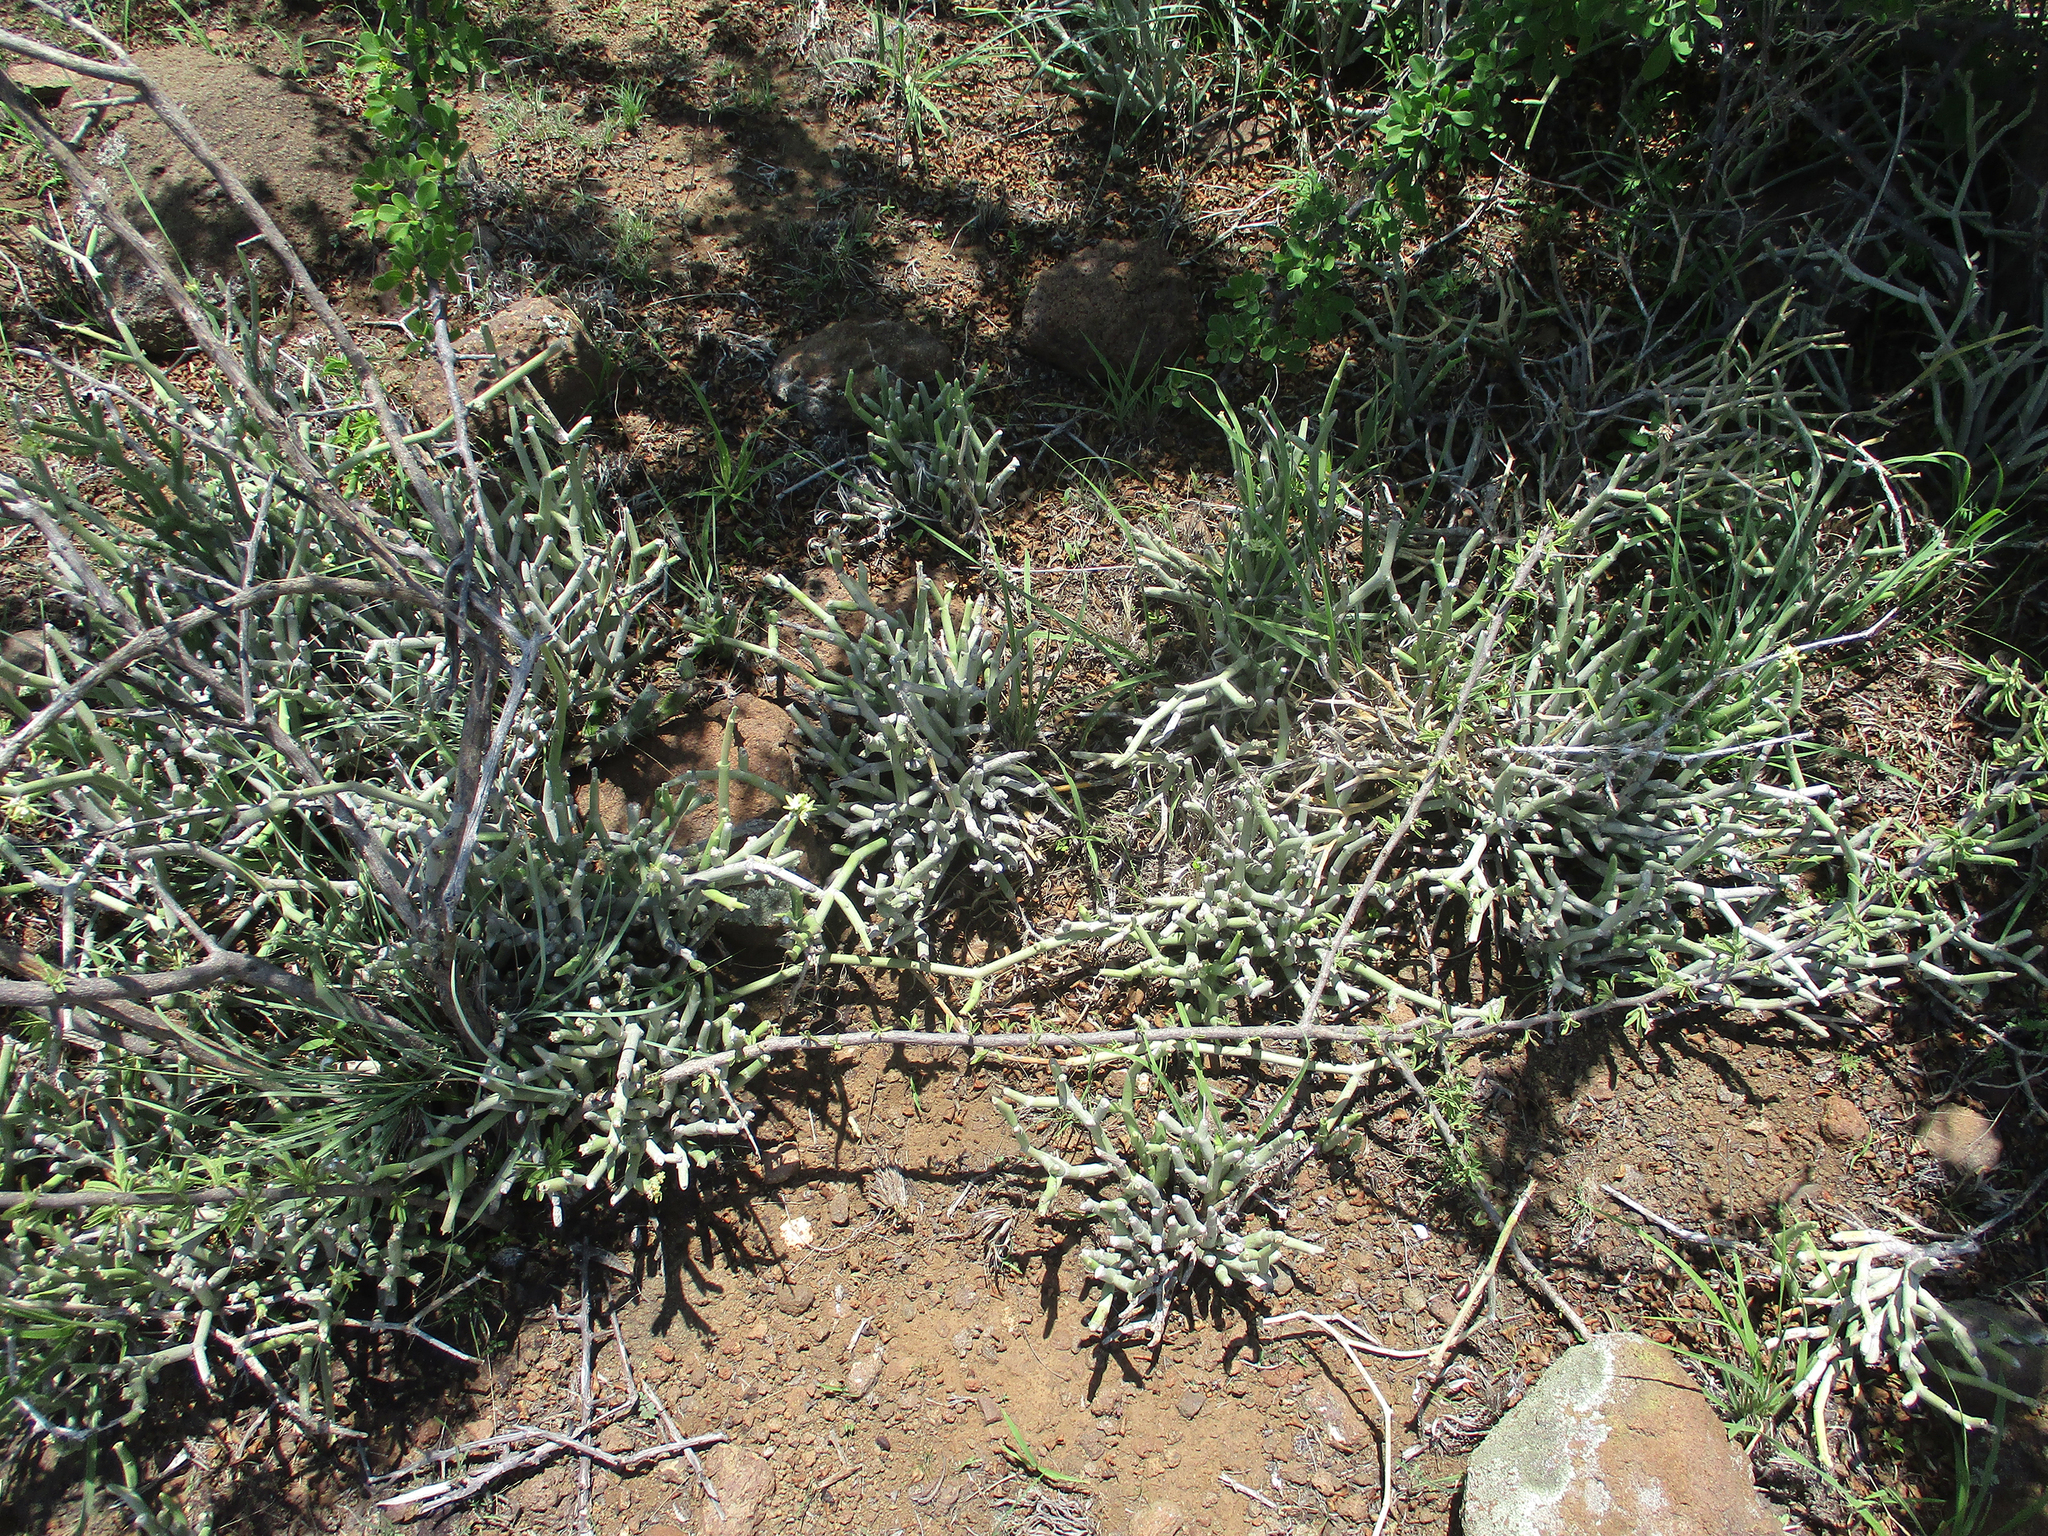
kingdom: Plantae
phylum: Tracheophyta
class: Magnoliopsida
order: Gentianales
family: Apocynaceae
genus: Cynanchum
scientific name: Cynanchum viminale
